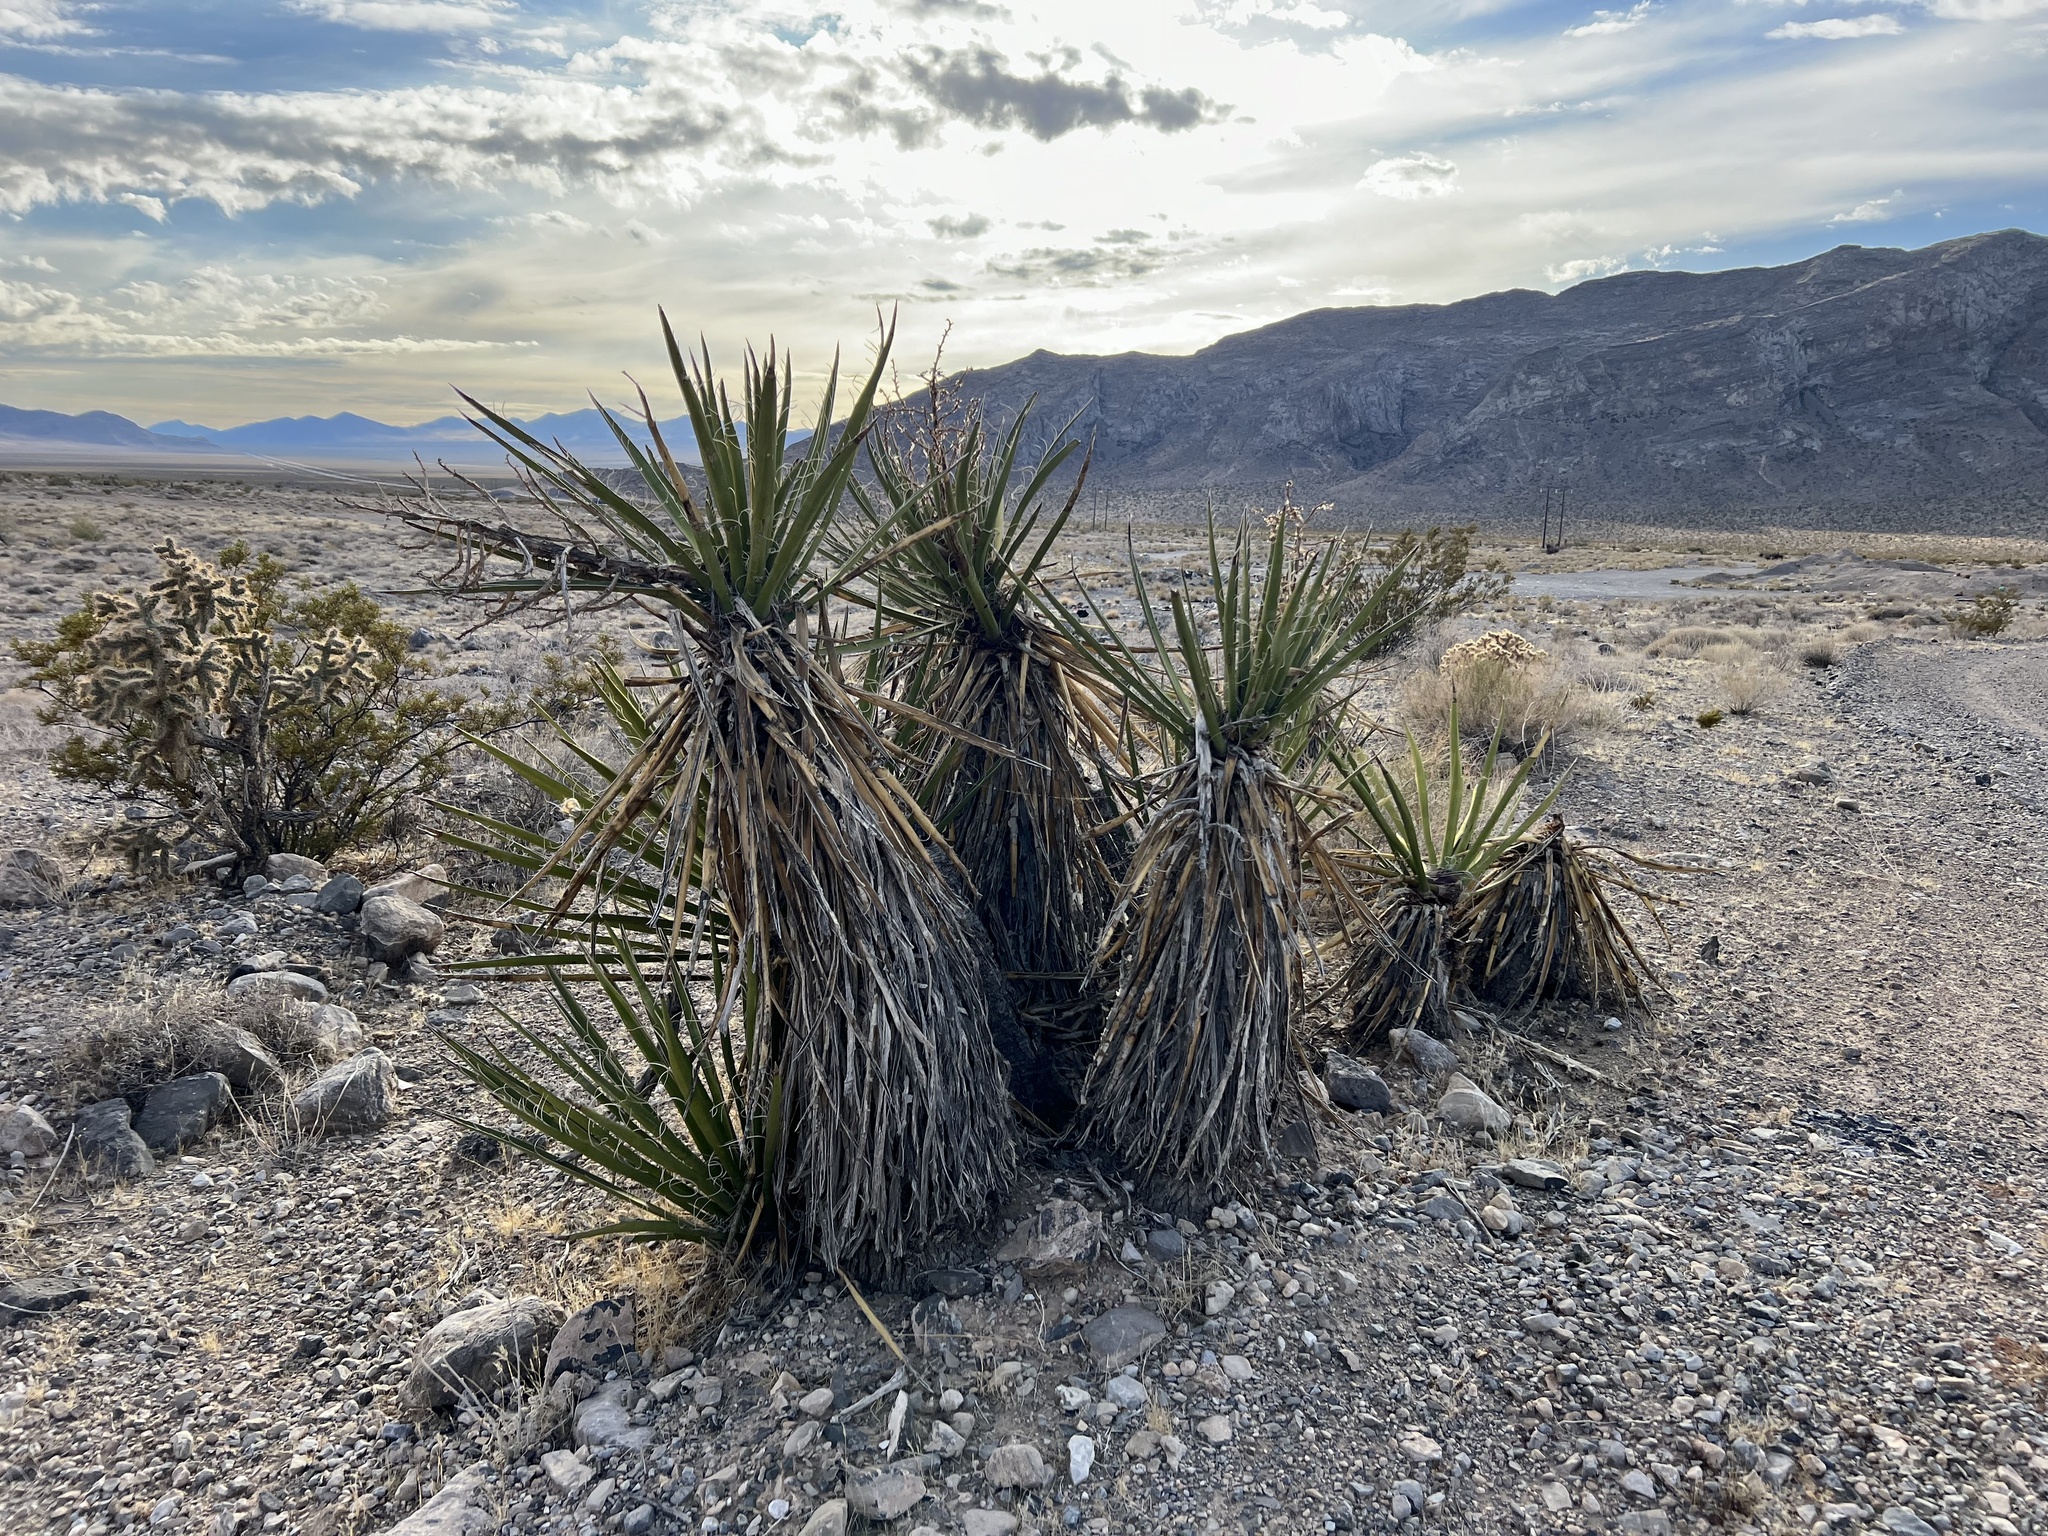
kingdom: Plantae
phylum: Tracheophyta
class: Liliopsida
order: Asparagales
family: Asparagaceae
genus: Yucca
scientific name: Yucca schidigera
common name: Mojave yucca
